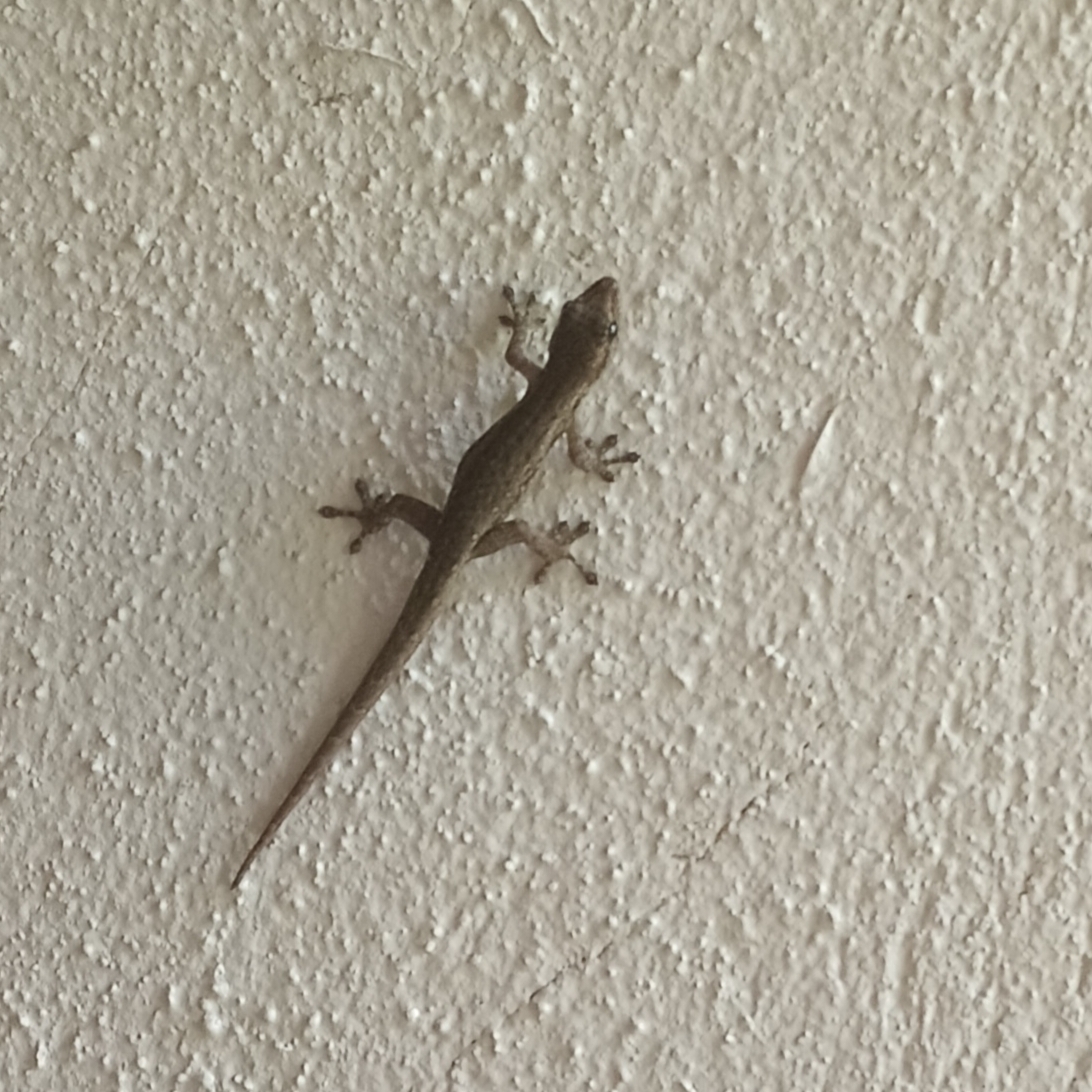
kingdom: Animalia
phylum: Chordata
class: Squamata
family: Gekkonidae
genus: Lygodactylus
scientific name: Lygodactylus capensis
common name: Cape dwarf gecko
